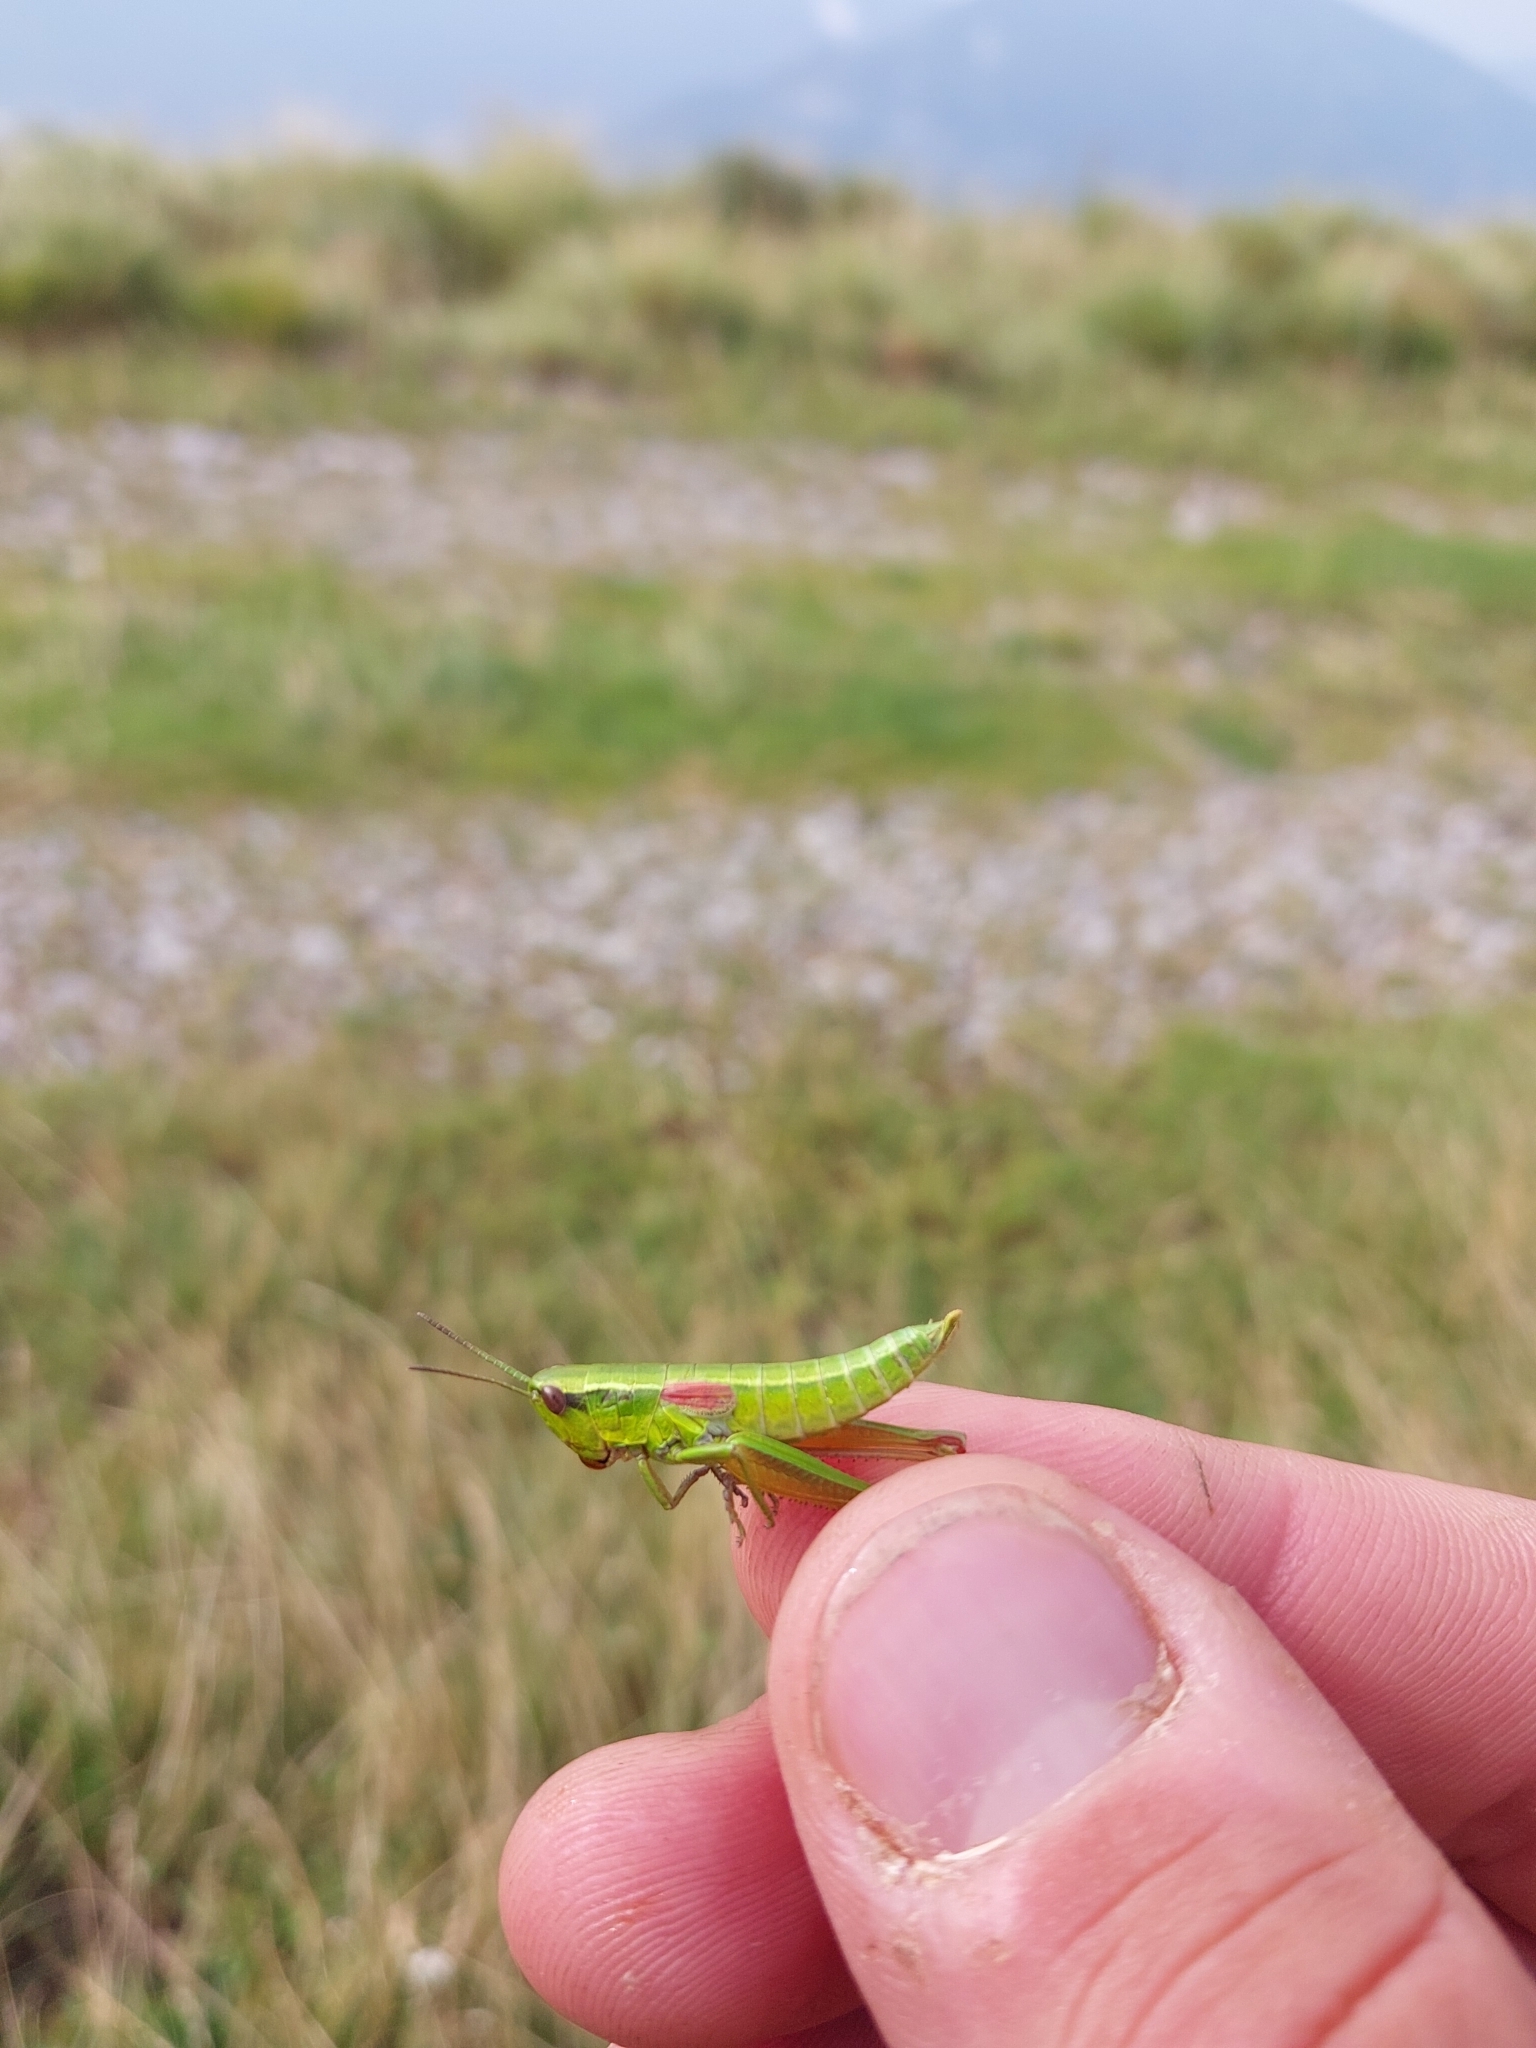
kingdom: Animalia
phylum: Arthropoda
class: Insecta
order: Orthoptera
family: Acrididae
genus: Euthystira
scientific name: Euthystira brachyptera
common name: Small gold grasshopper
